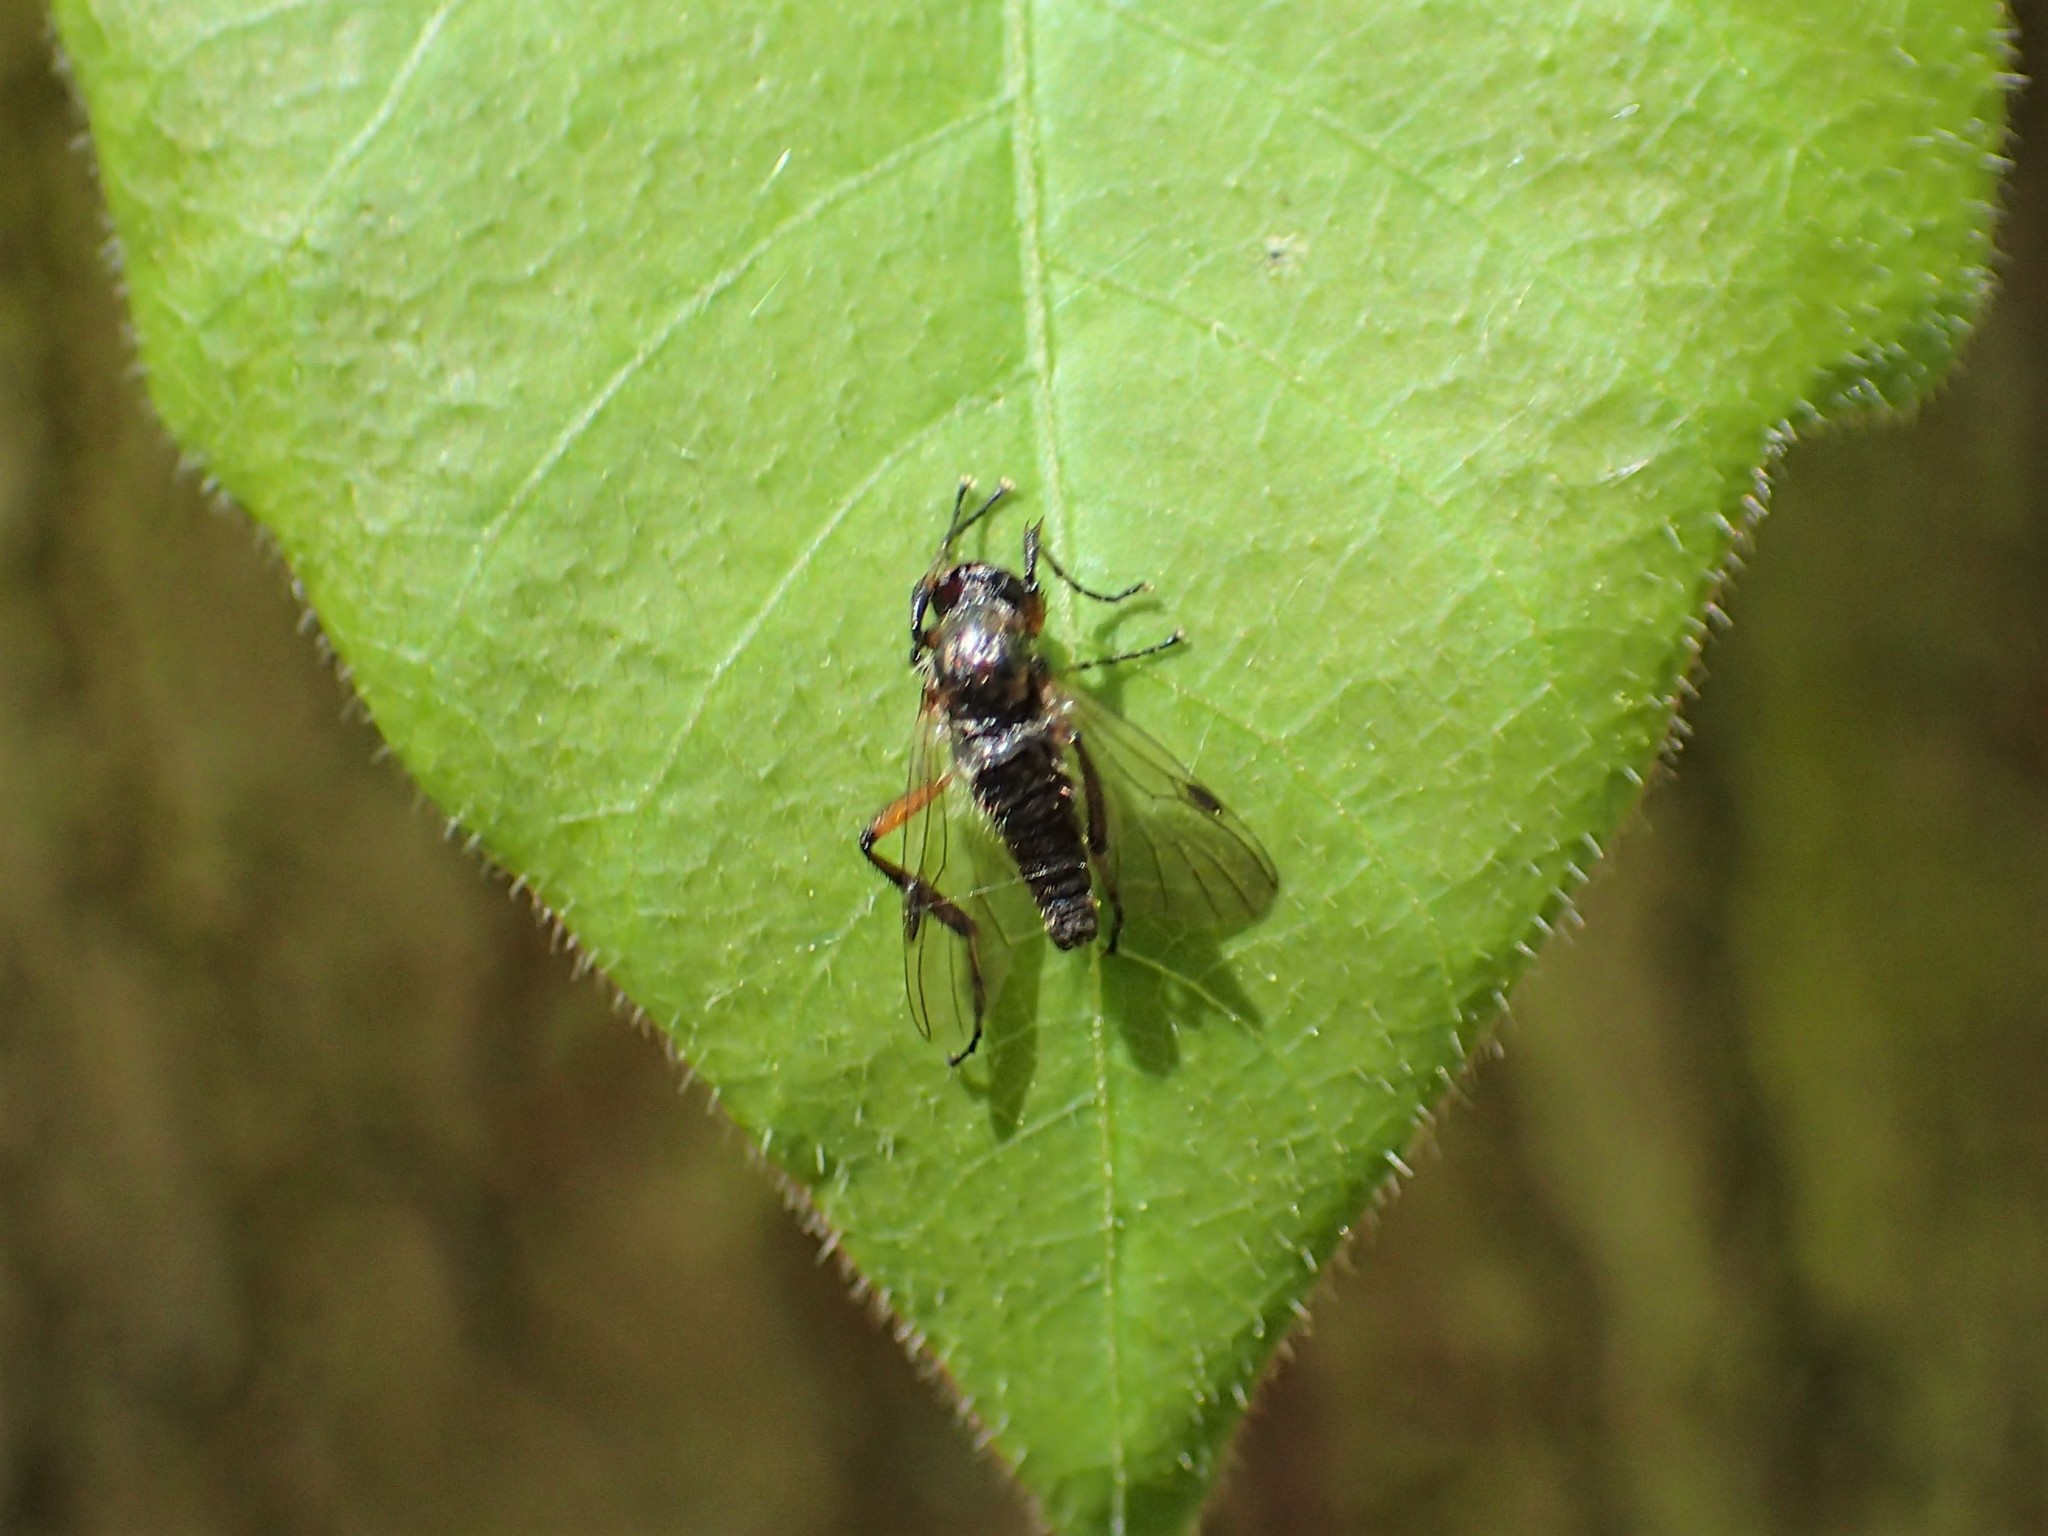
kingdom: Animalia
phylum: Arthropoda
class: Insecta
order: Diptera
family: Bibionidae
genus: Bibio
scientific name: Bibio
